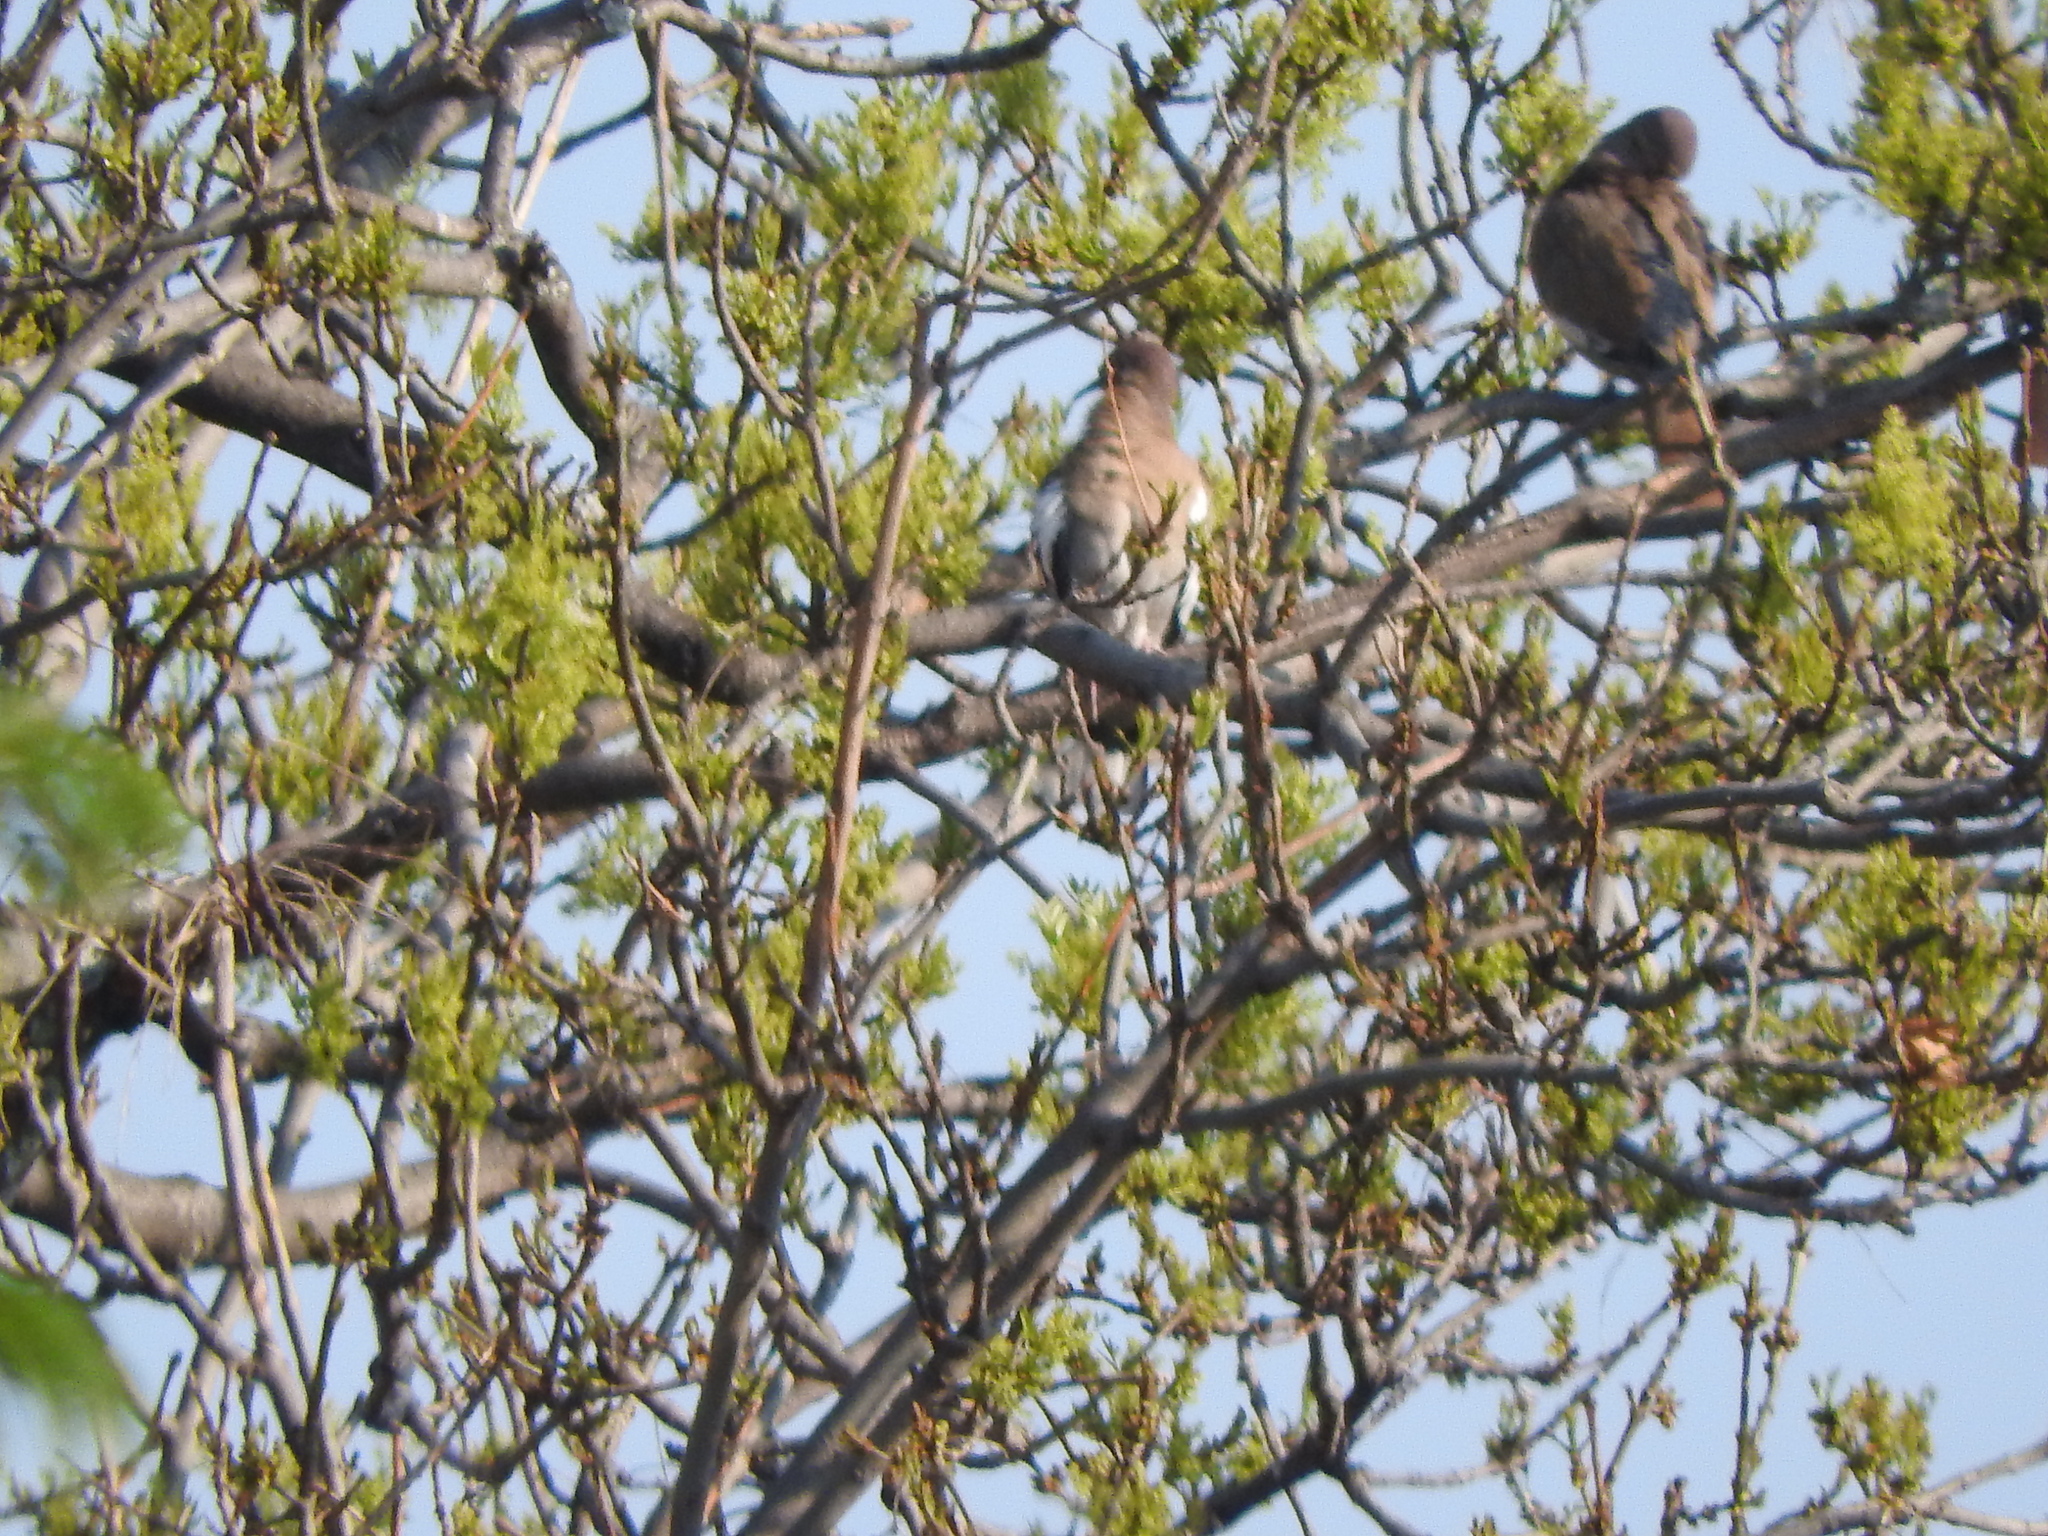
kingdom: Animalia
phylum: Chordata
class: Aves
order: Columbiformes
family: Columbidae
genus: Zenaida
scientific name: Zenaida asiatica
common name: White-winged dove
